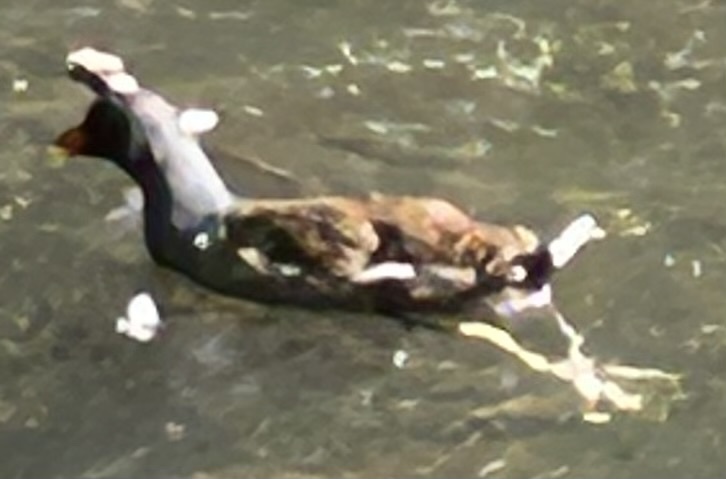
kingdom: Animalia
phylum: Chordata
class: Aves
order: Gruiformes
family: Rallidae
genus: Gallinula
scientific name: Gallinula chloropus
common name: Common moorhen
